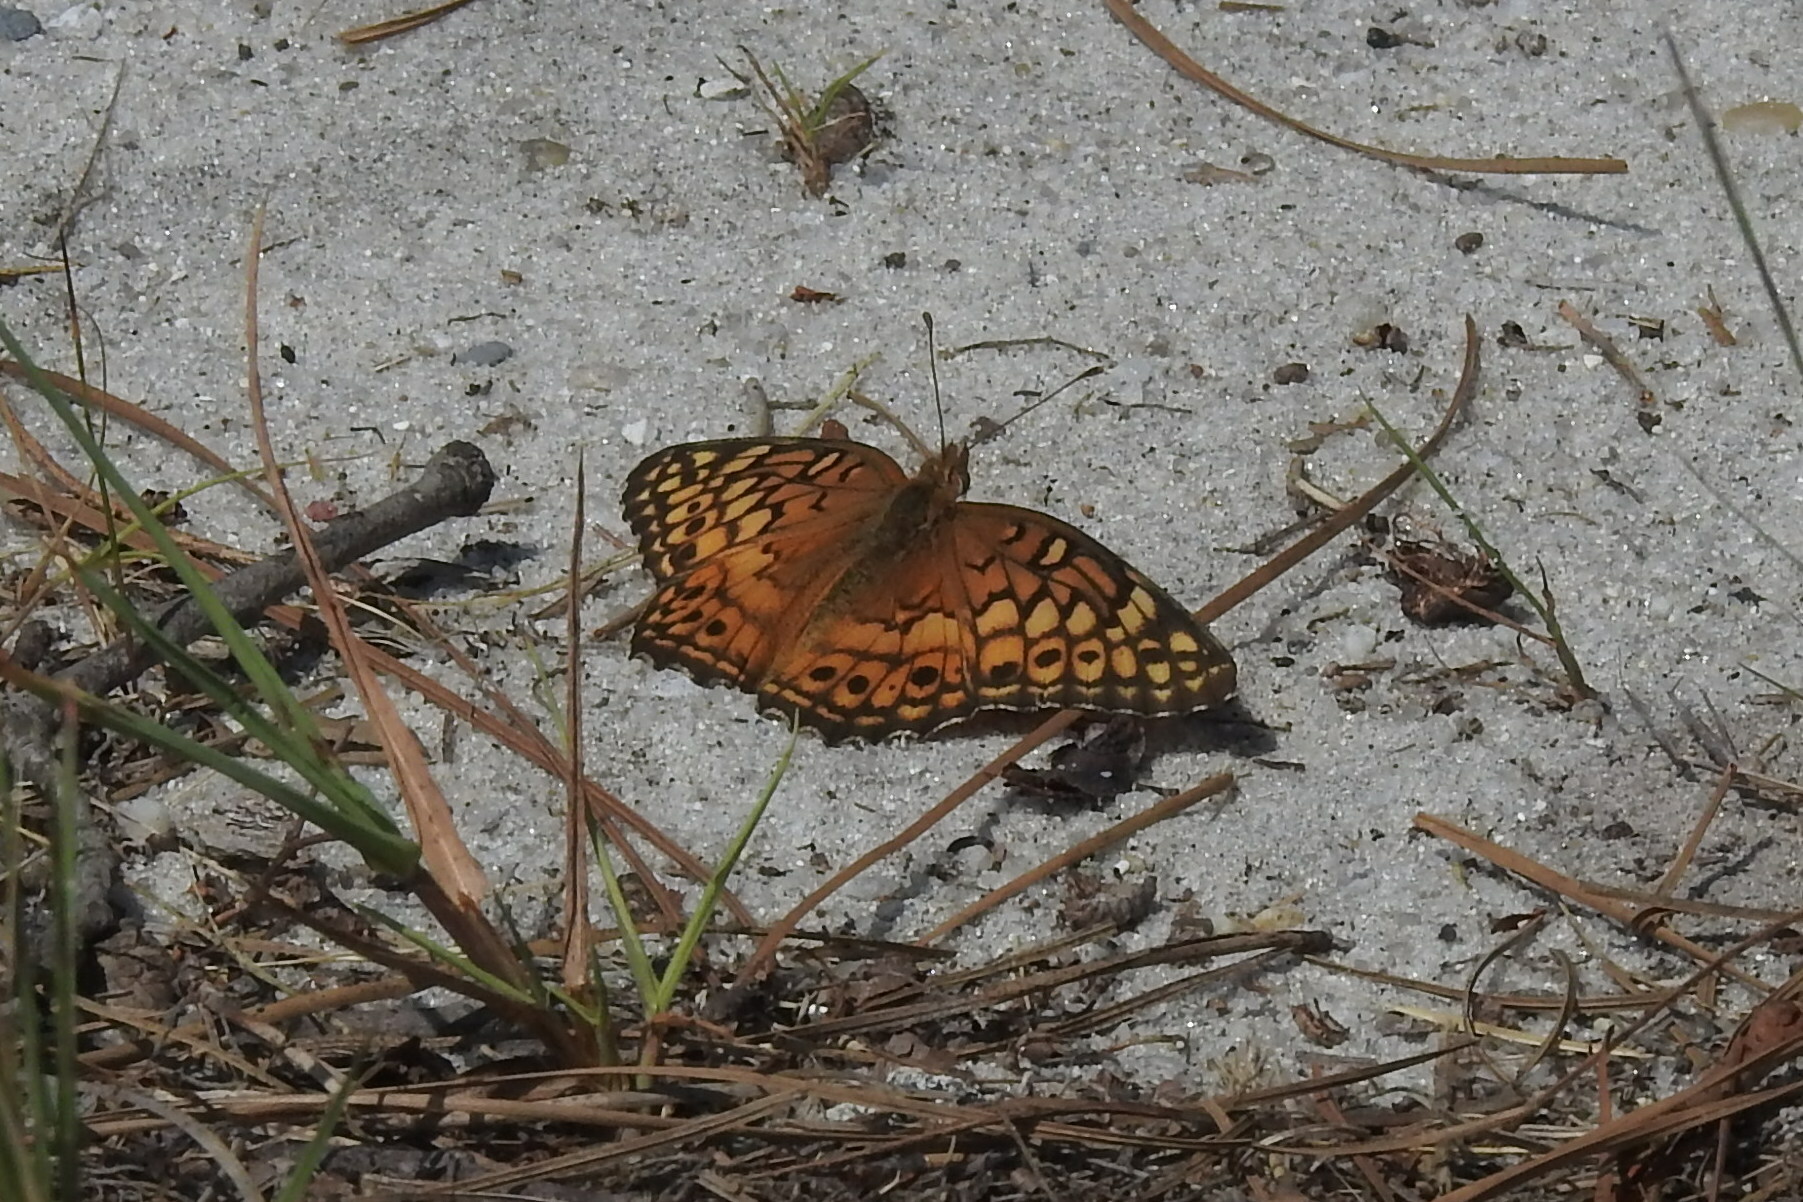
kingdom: Animalia
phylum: Arthropoda
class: Insecta
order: Lepidoptera
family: Nymphalidae
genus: Euptoieta
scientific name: Euptoieta claudia
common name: Variegated fritillary
